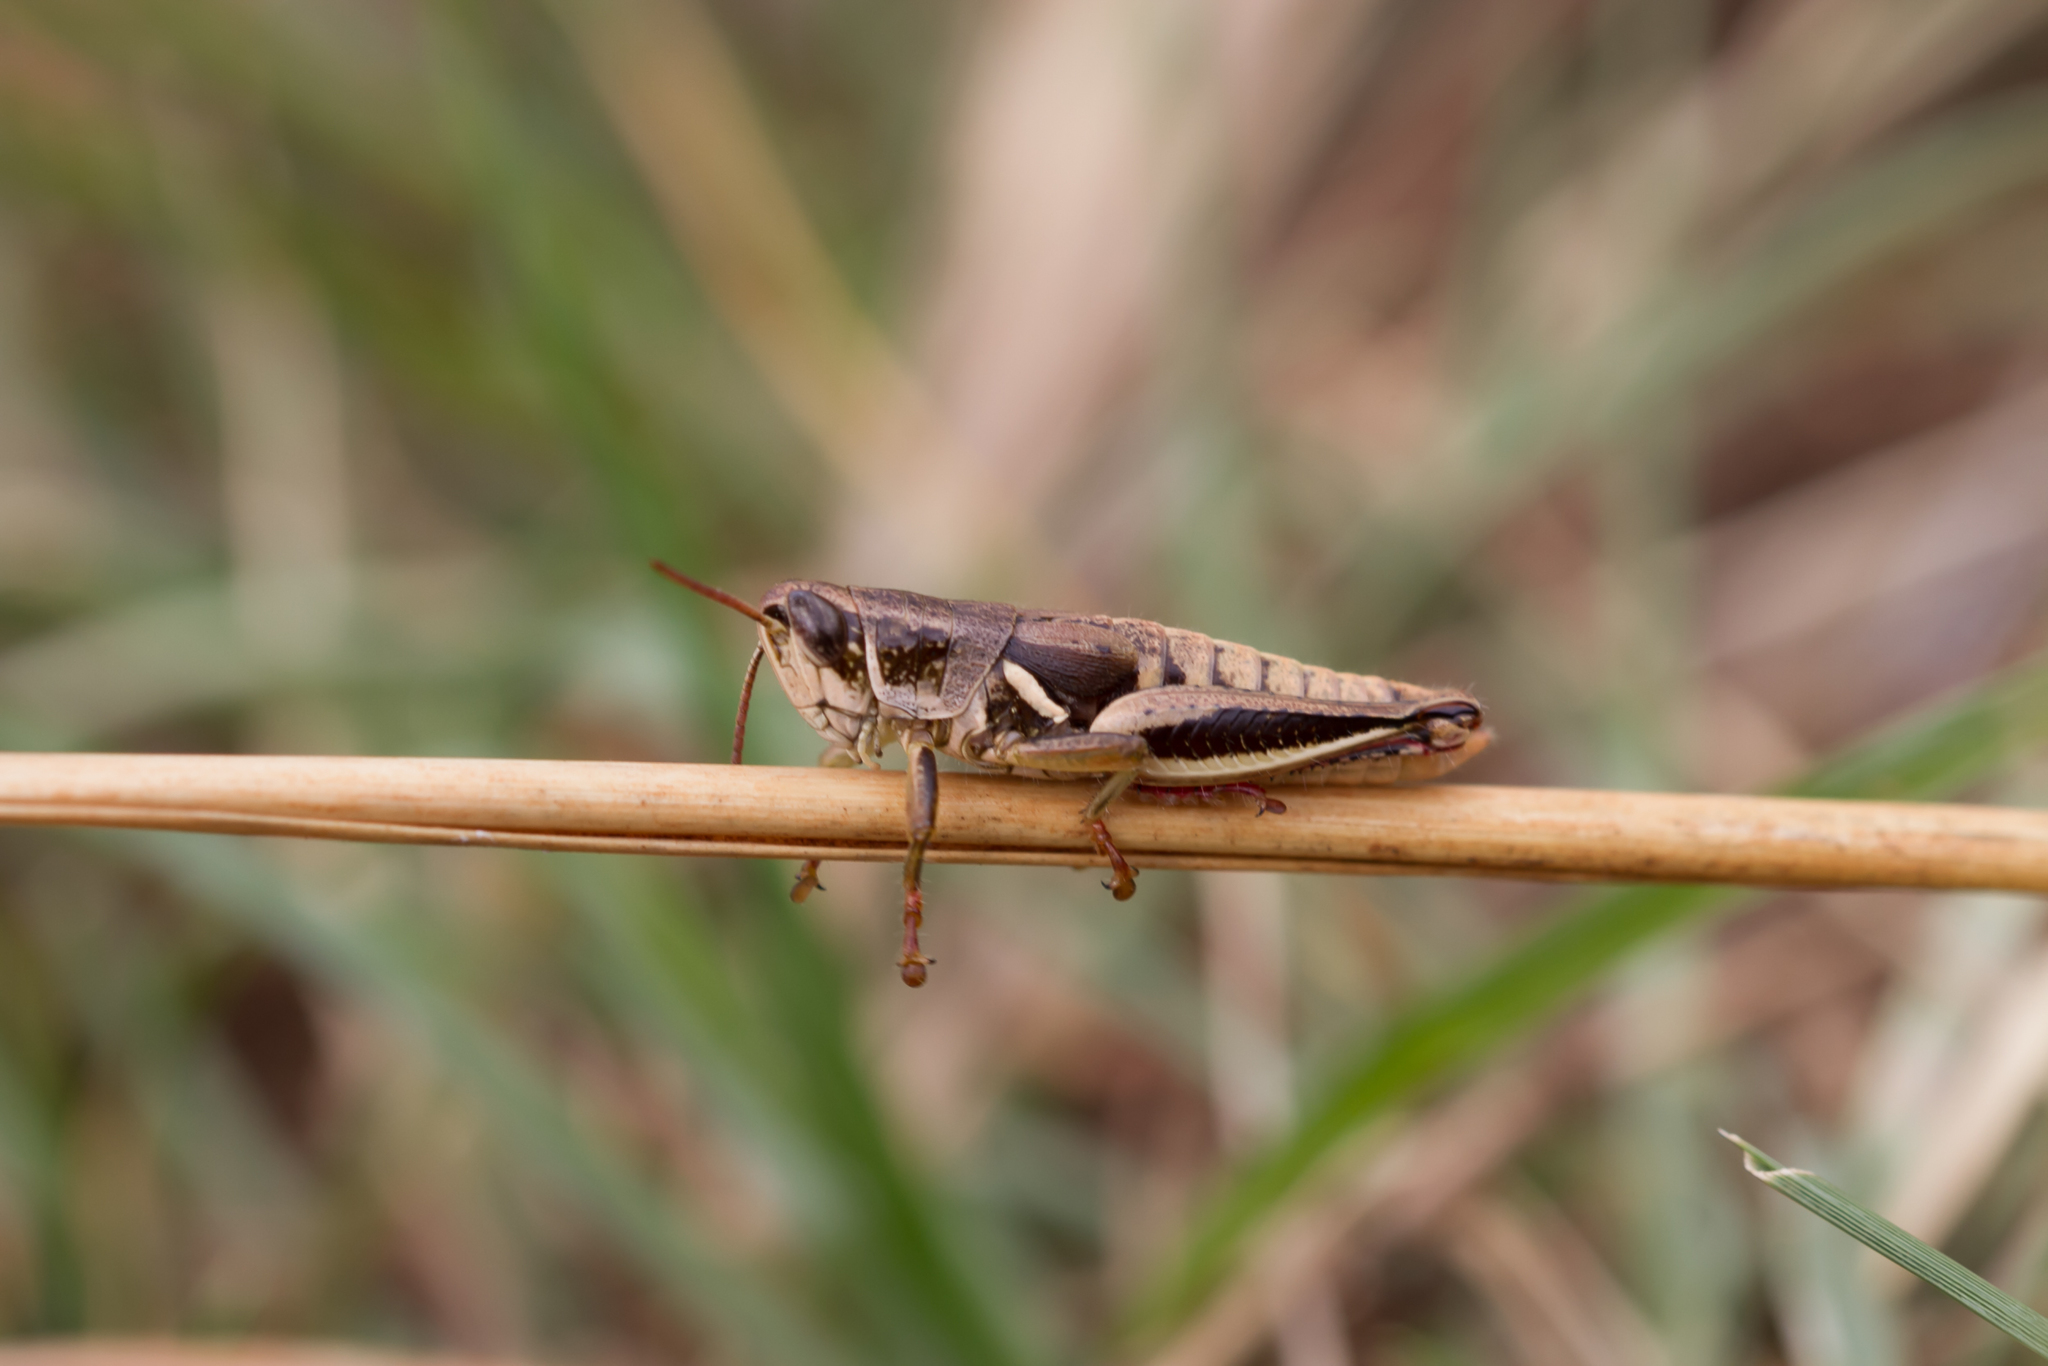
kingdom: Animalia
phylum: Arthropoda
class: Insecta
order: Orthoptera
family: Acrididae
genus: Brachycatantops
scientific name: Brachycatantops emalicus
